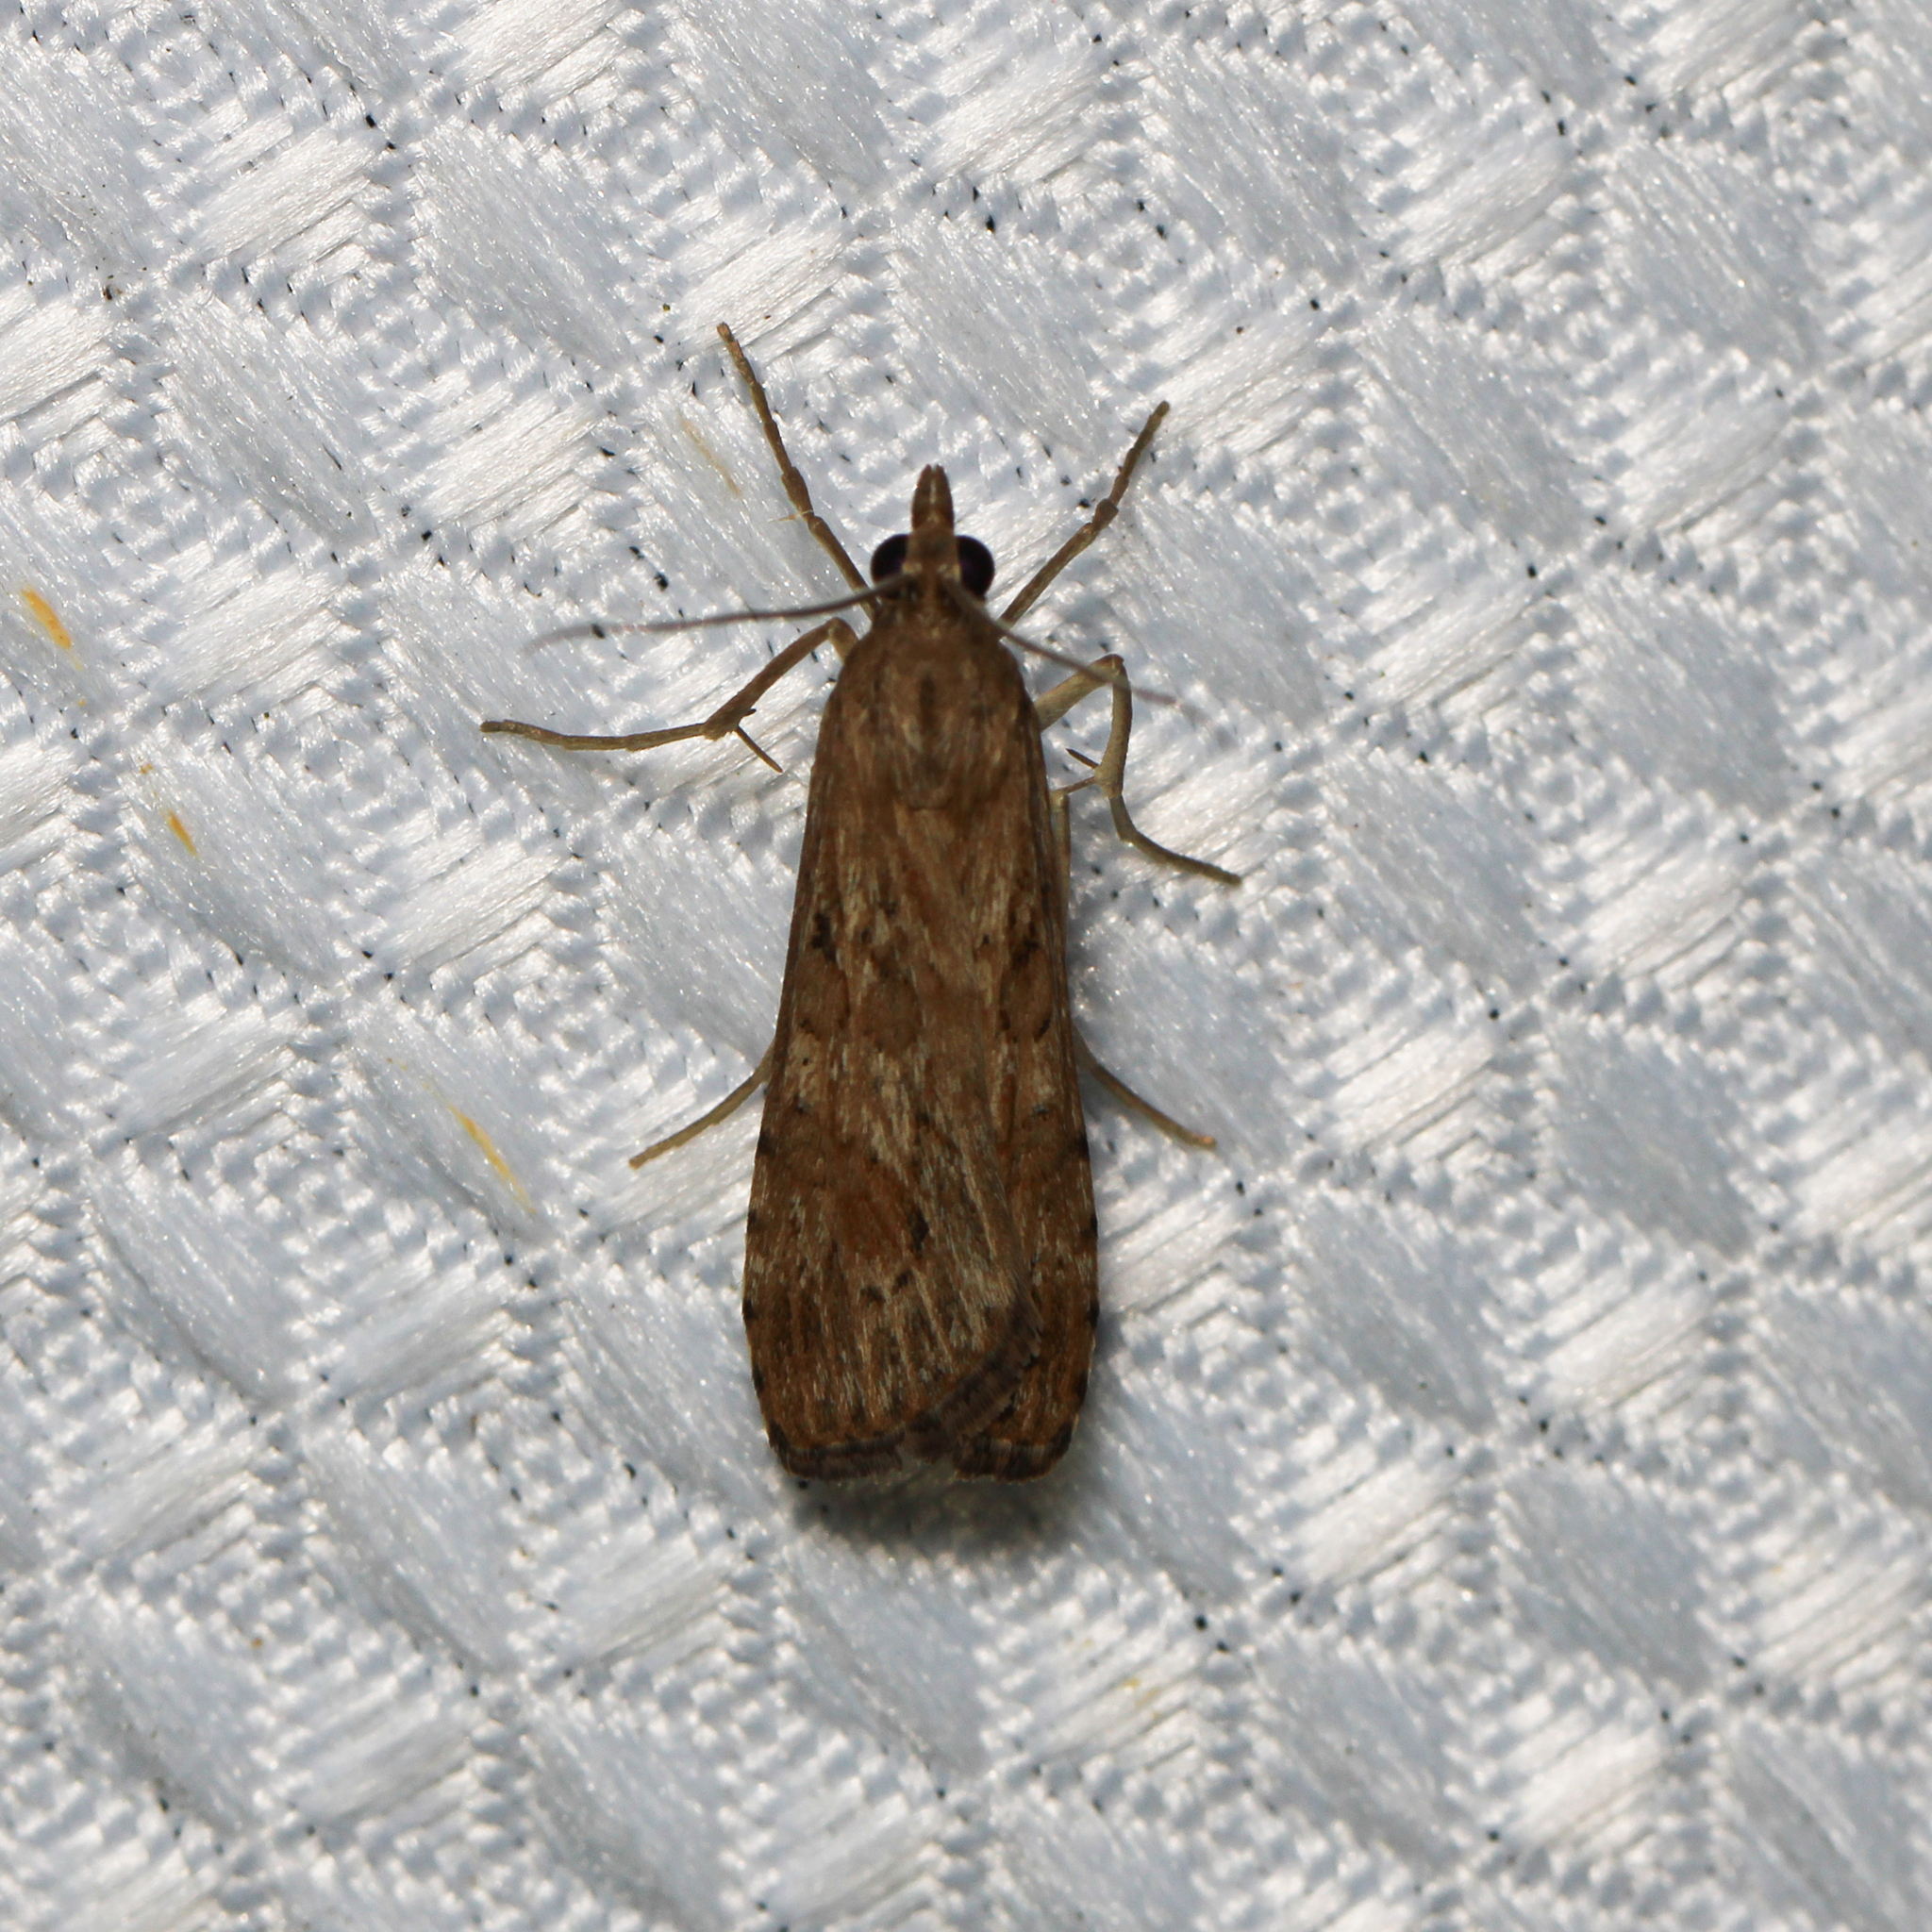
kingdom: Animalia
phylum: Arthropoda
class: Insecta
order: Lepidoptera
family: Crambidae
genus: Nomophila
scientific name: Nomophila nearctica
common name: American rush veneer
